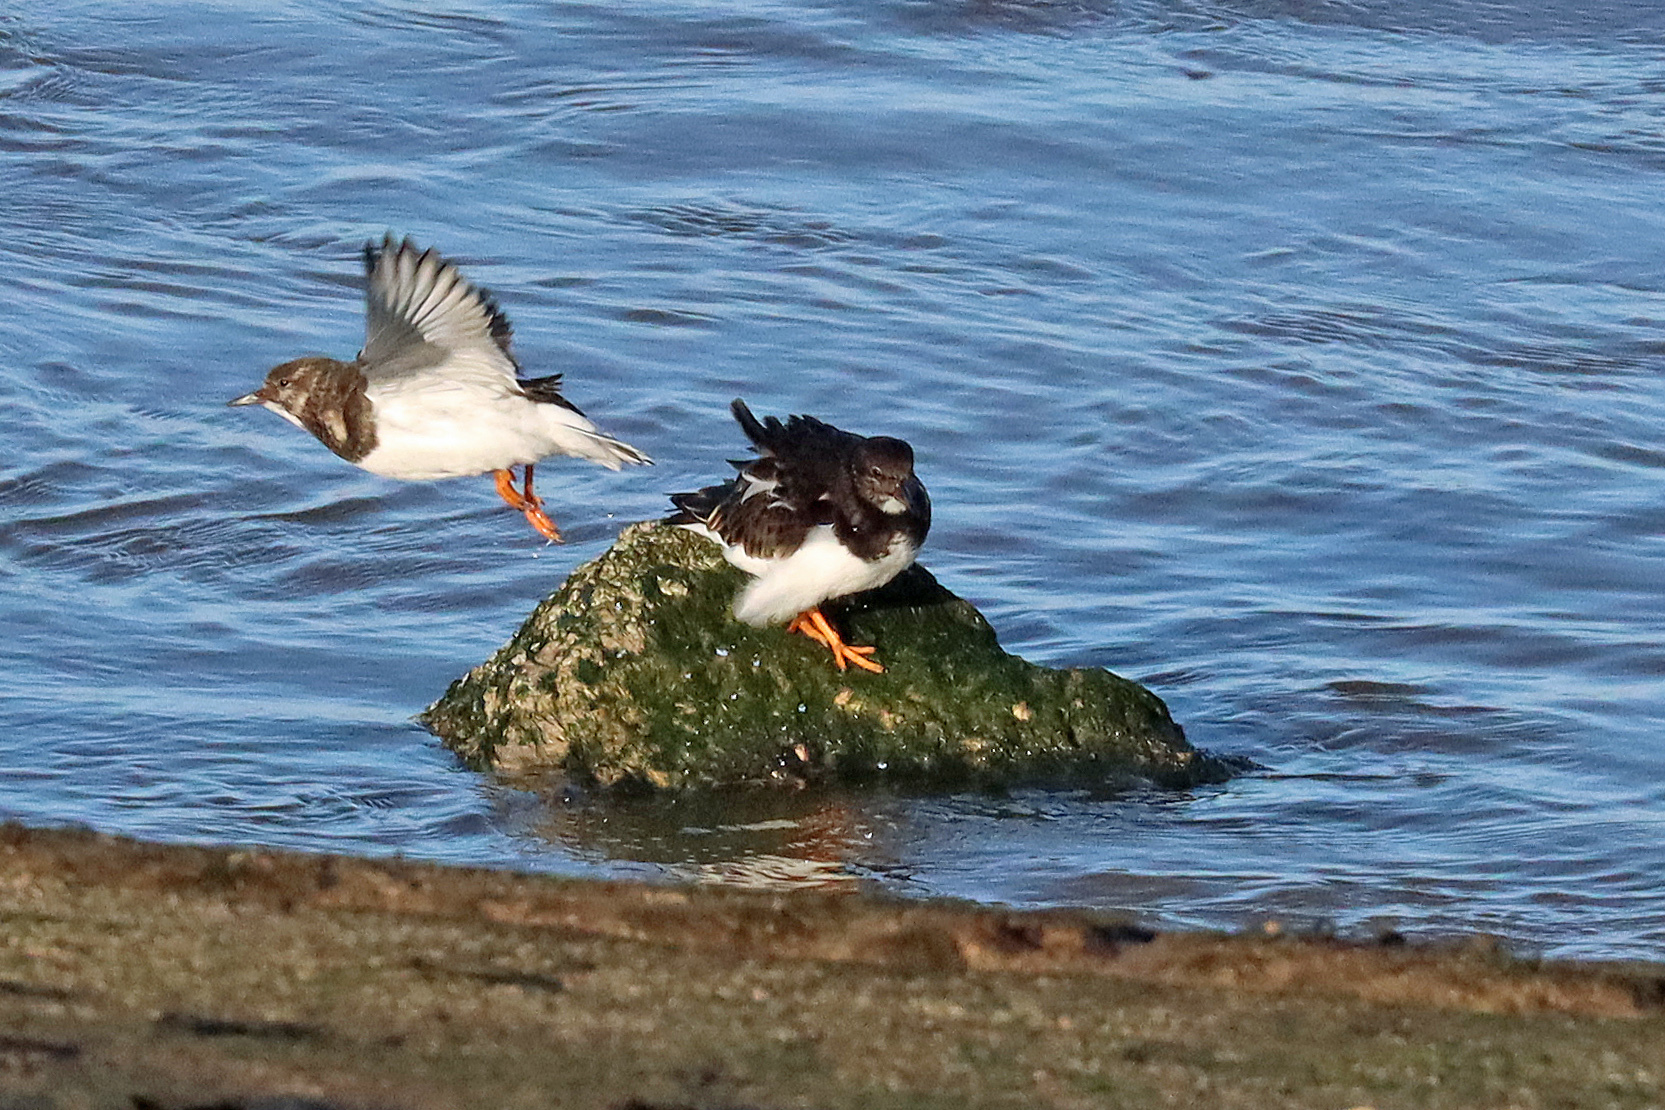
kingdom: Animalia
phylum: Chordata
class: Aves
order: Charadriiformes
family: Scolopacidae
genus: Arenaria
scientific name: Arenaria interpres
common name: Ruddy turnstone
